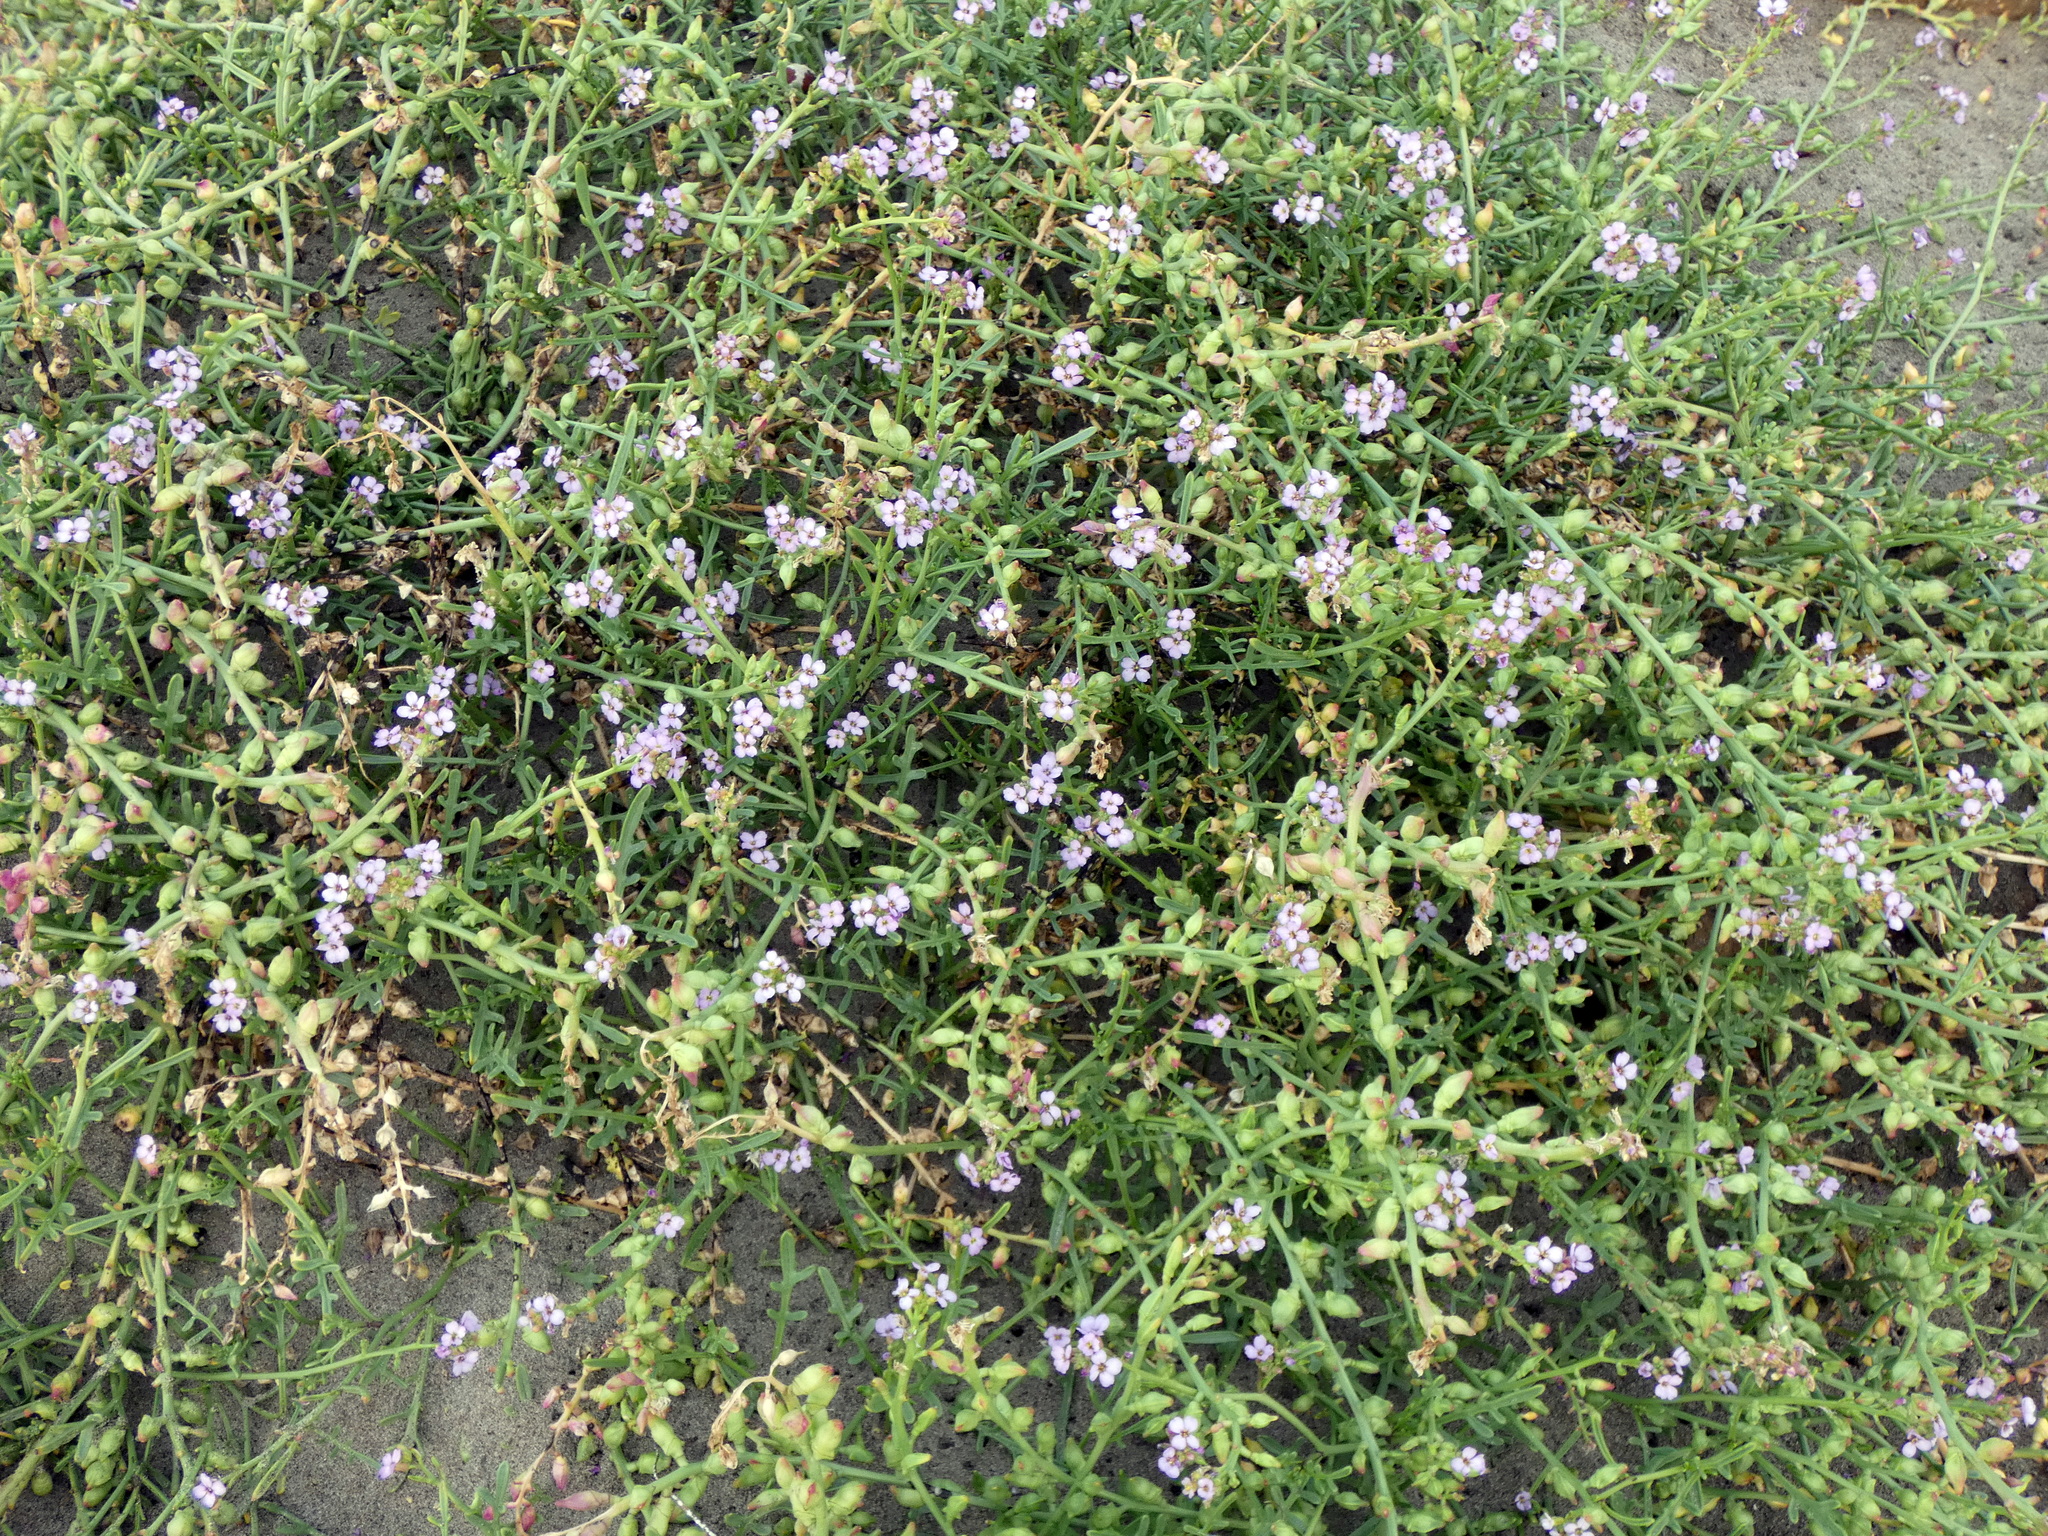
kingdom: Plantae
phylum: Tracheophyta
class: Magnoliopsida
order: Brassicales
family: Brassicaceae
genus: Cakile
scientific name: Cakile maritima
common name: Sea rocket
